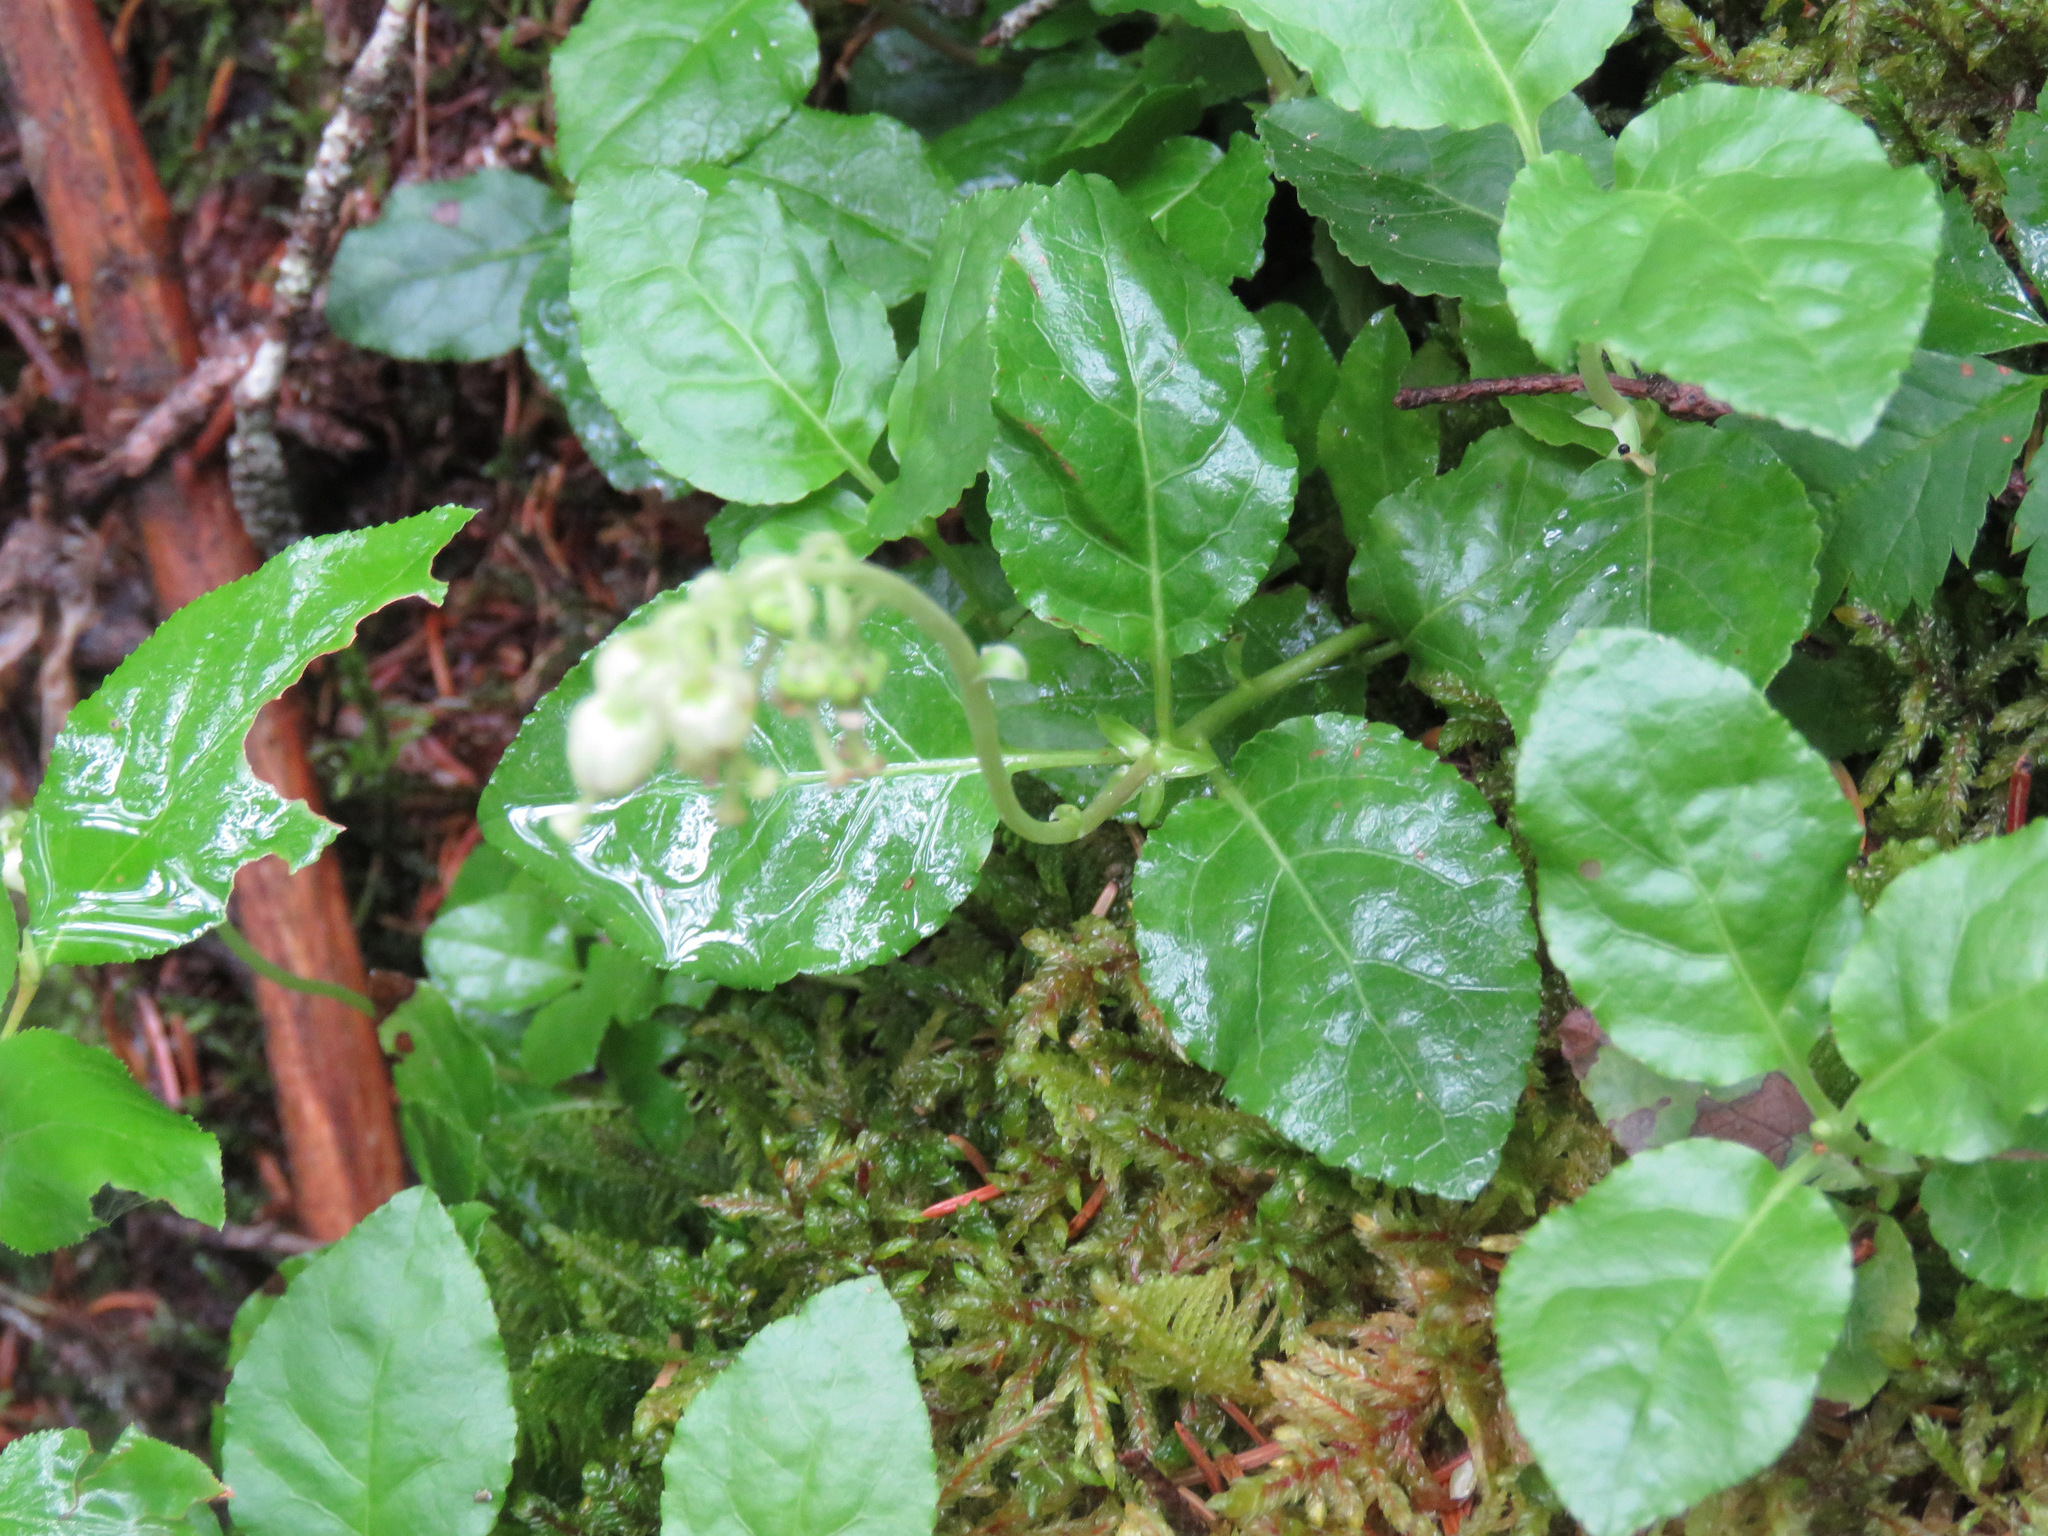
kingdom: Plantae
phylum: Tracheophyta
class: Magnoliopsida
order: Ericales
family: Ericaceae
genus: Orthilia
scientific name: Orthilia secunda
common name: One-sided orthilia
